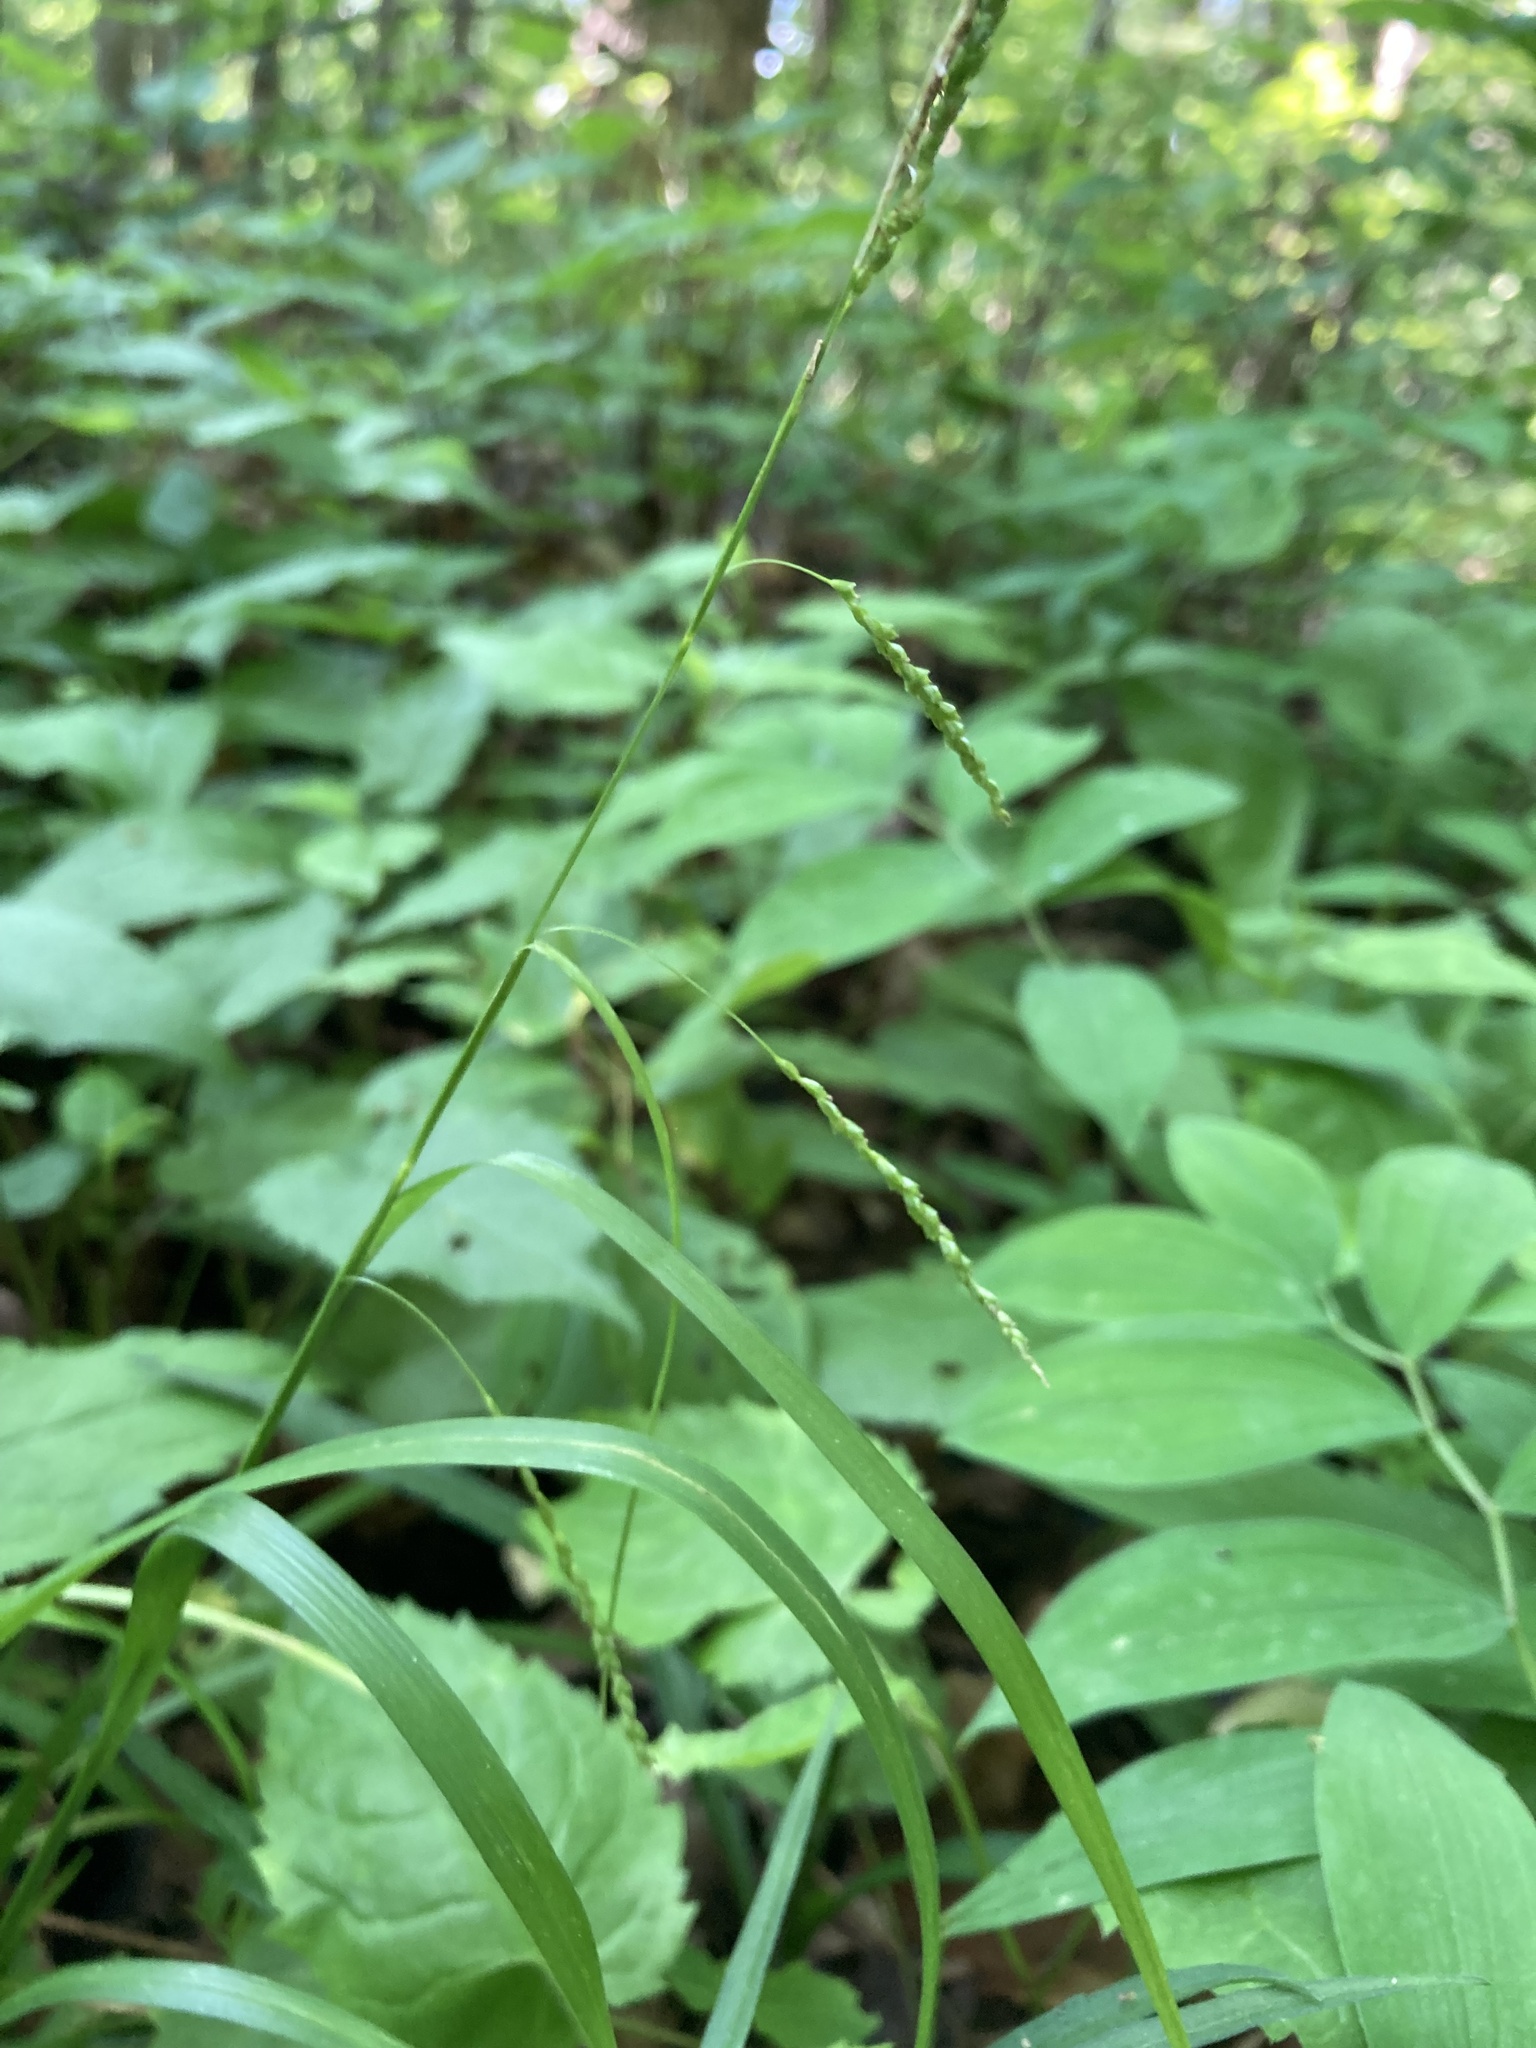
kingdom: Plantae
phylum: Tracheophyta
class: Liliopsida
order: Poales
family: Cyperaceae
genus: Carex
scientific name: Carex gracillima
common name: Graceful sedge
